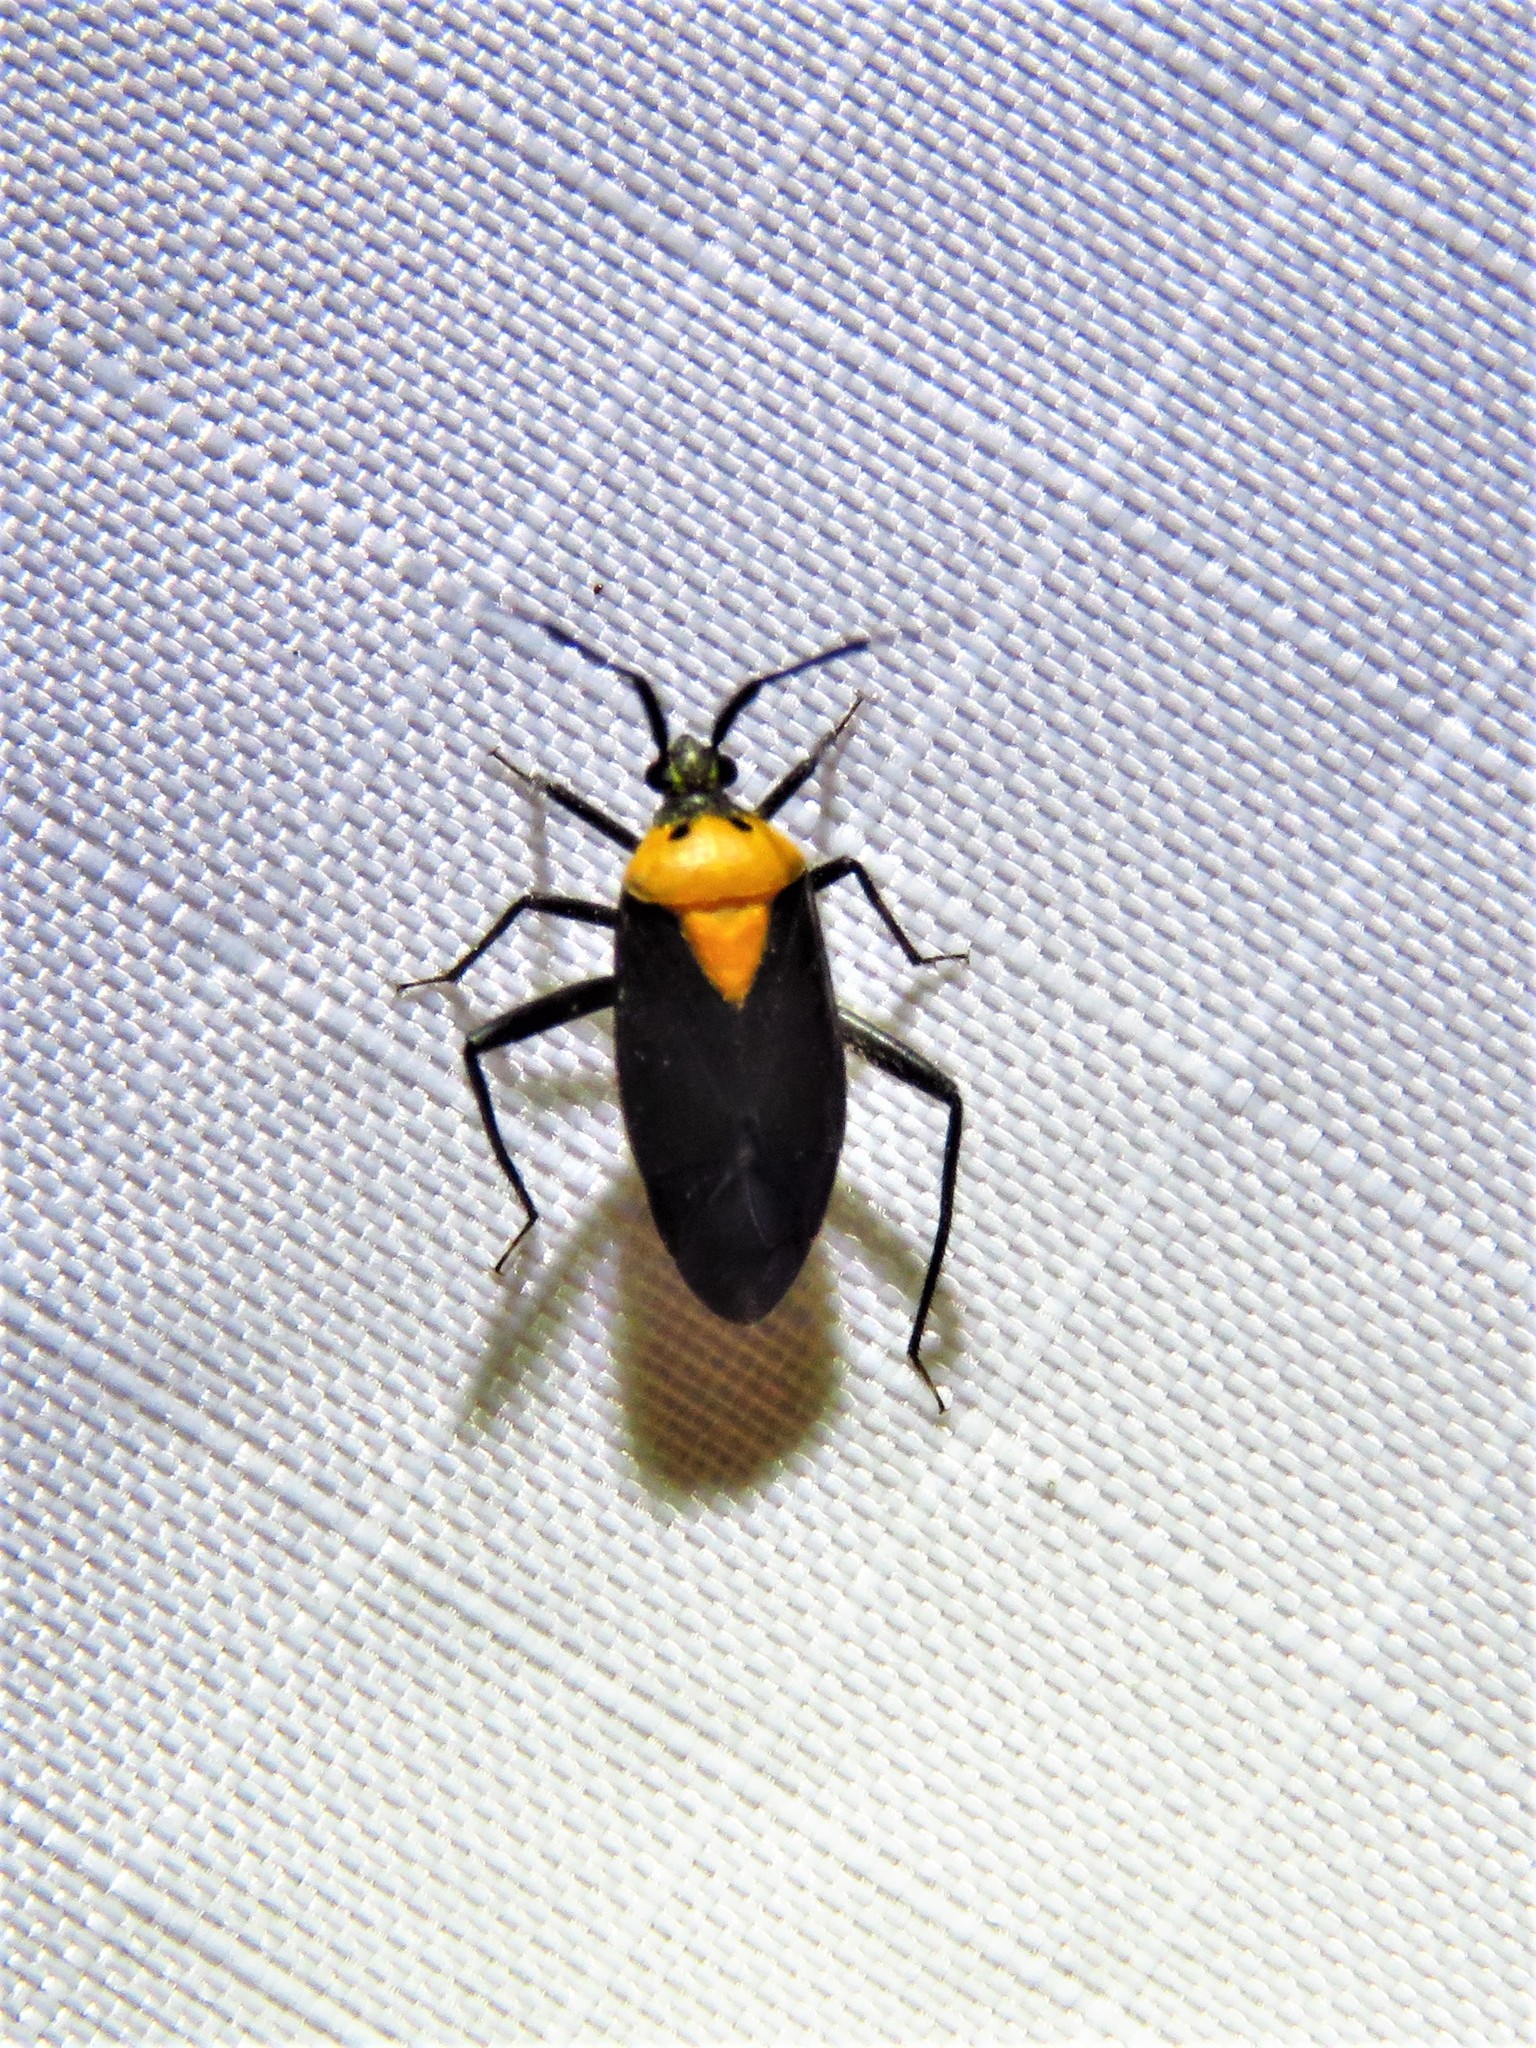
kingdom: Animalia
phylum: Arthropoda
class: Insecta
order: Hemiptera
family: Miridae
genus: Taedia
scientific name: Taedia scrupea
